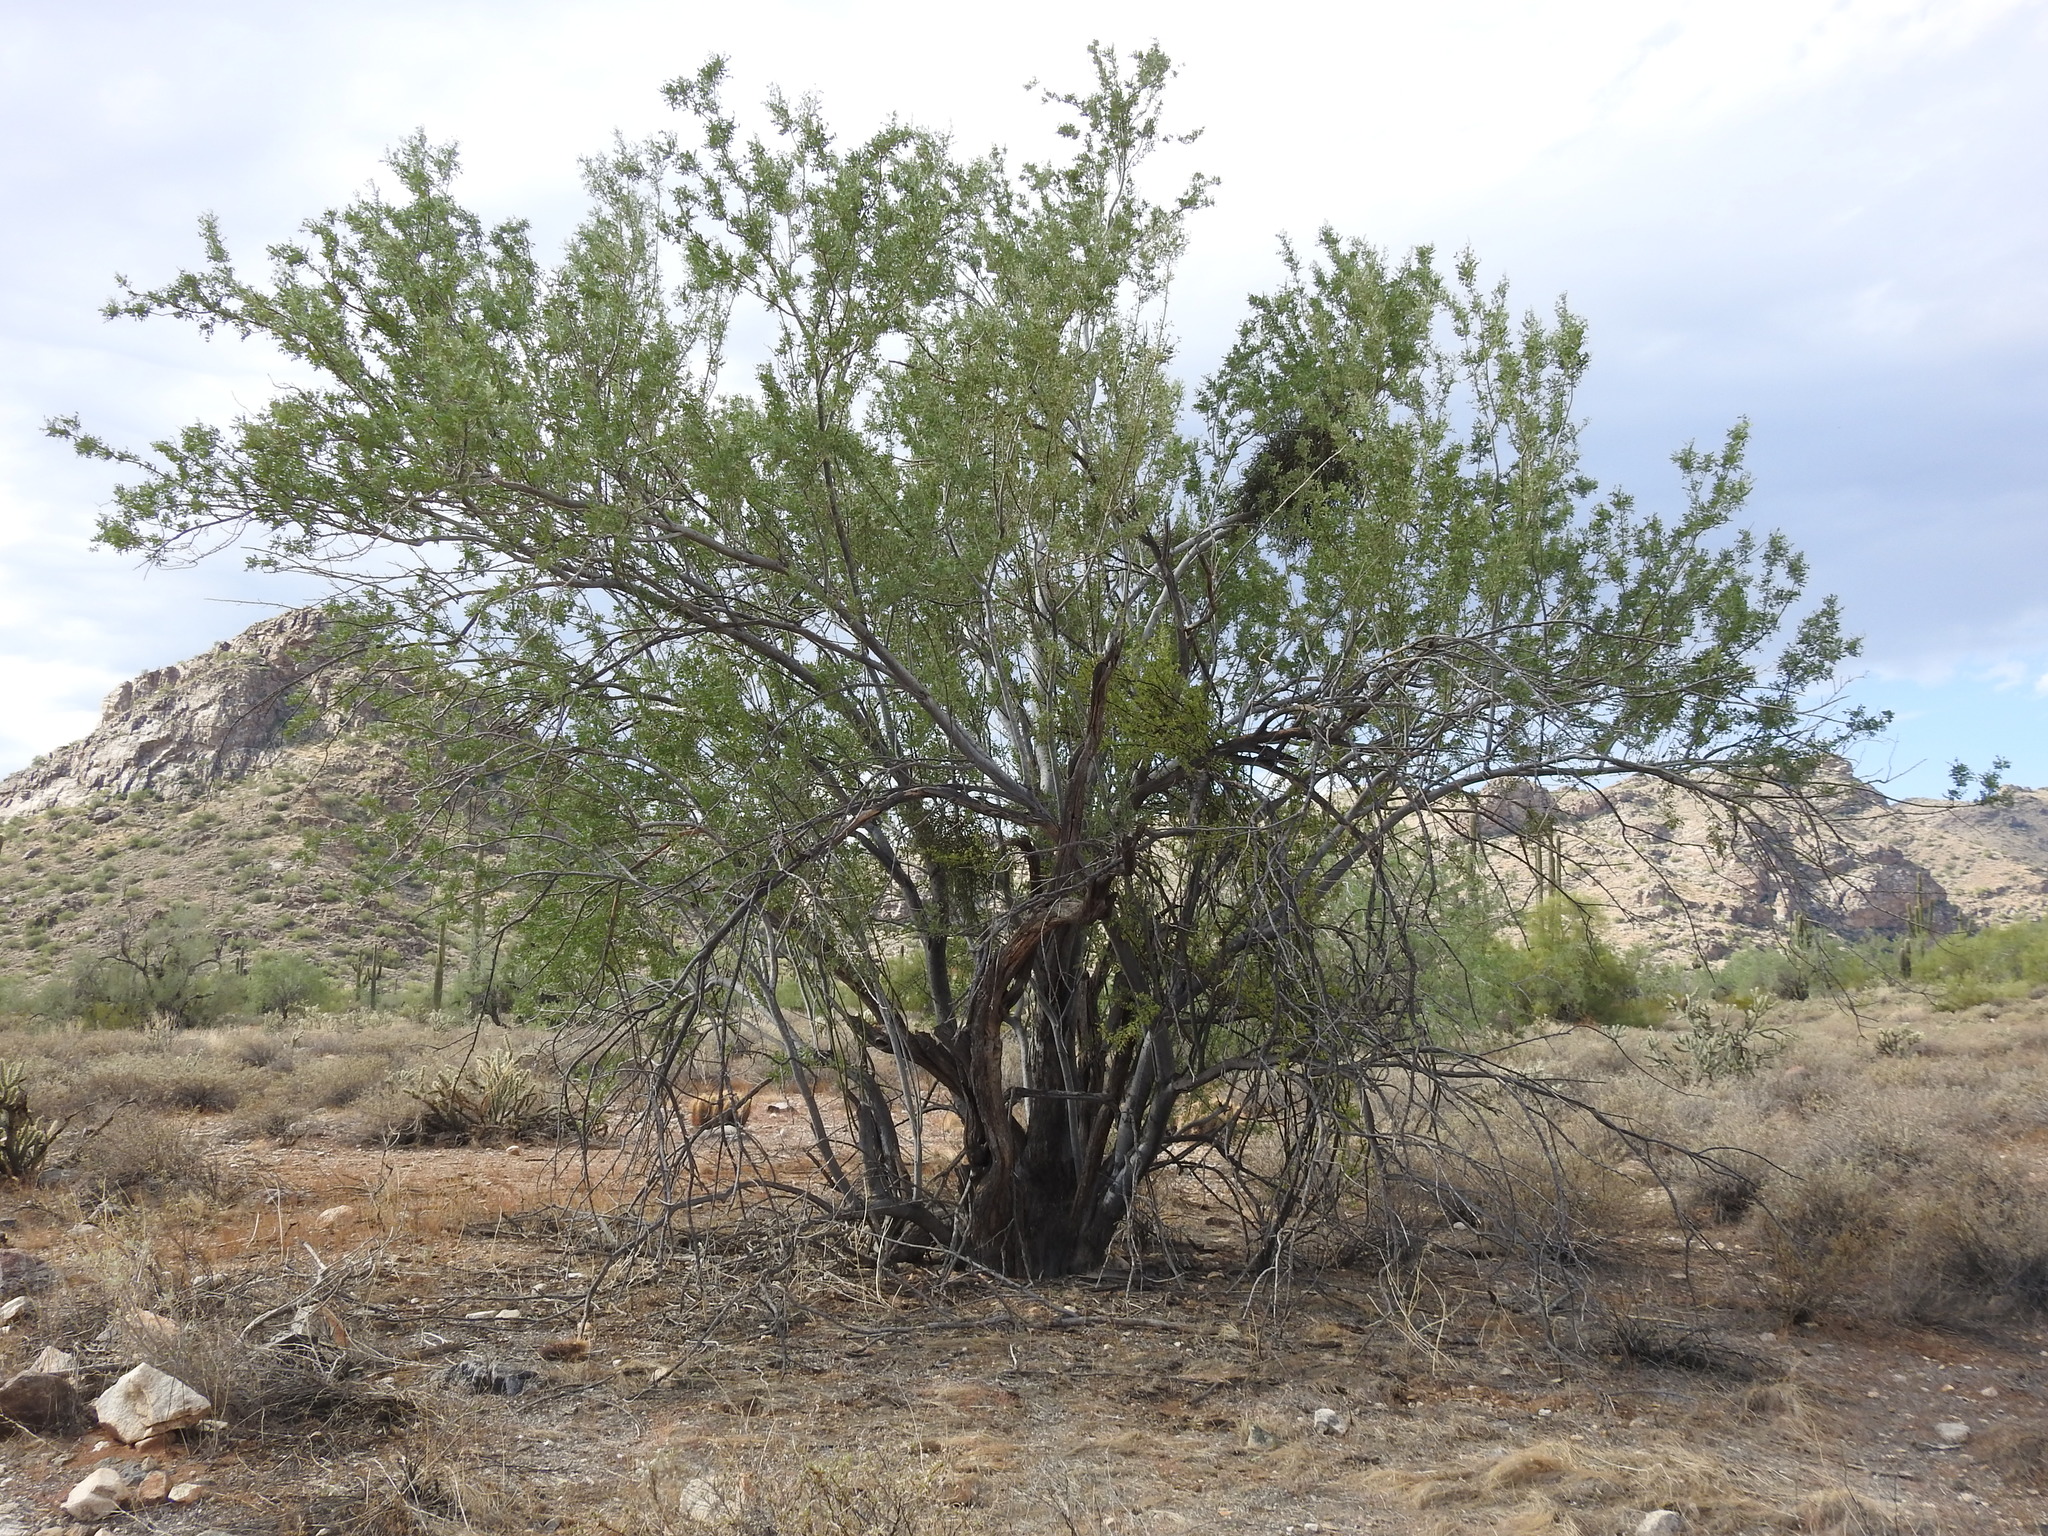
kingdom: Plantae
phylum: Tracheophyta
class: Magnoliopsida
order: Fabales
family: Fabaceae
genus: Olneya
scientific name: Olneya tesota
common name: Desert ironwood
